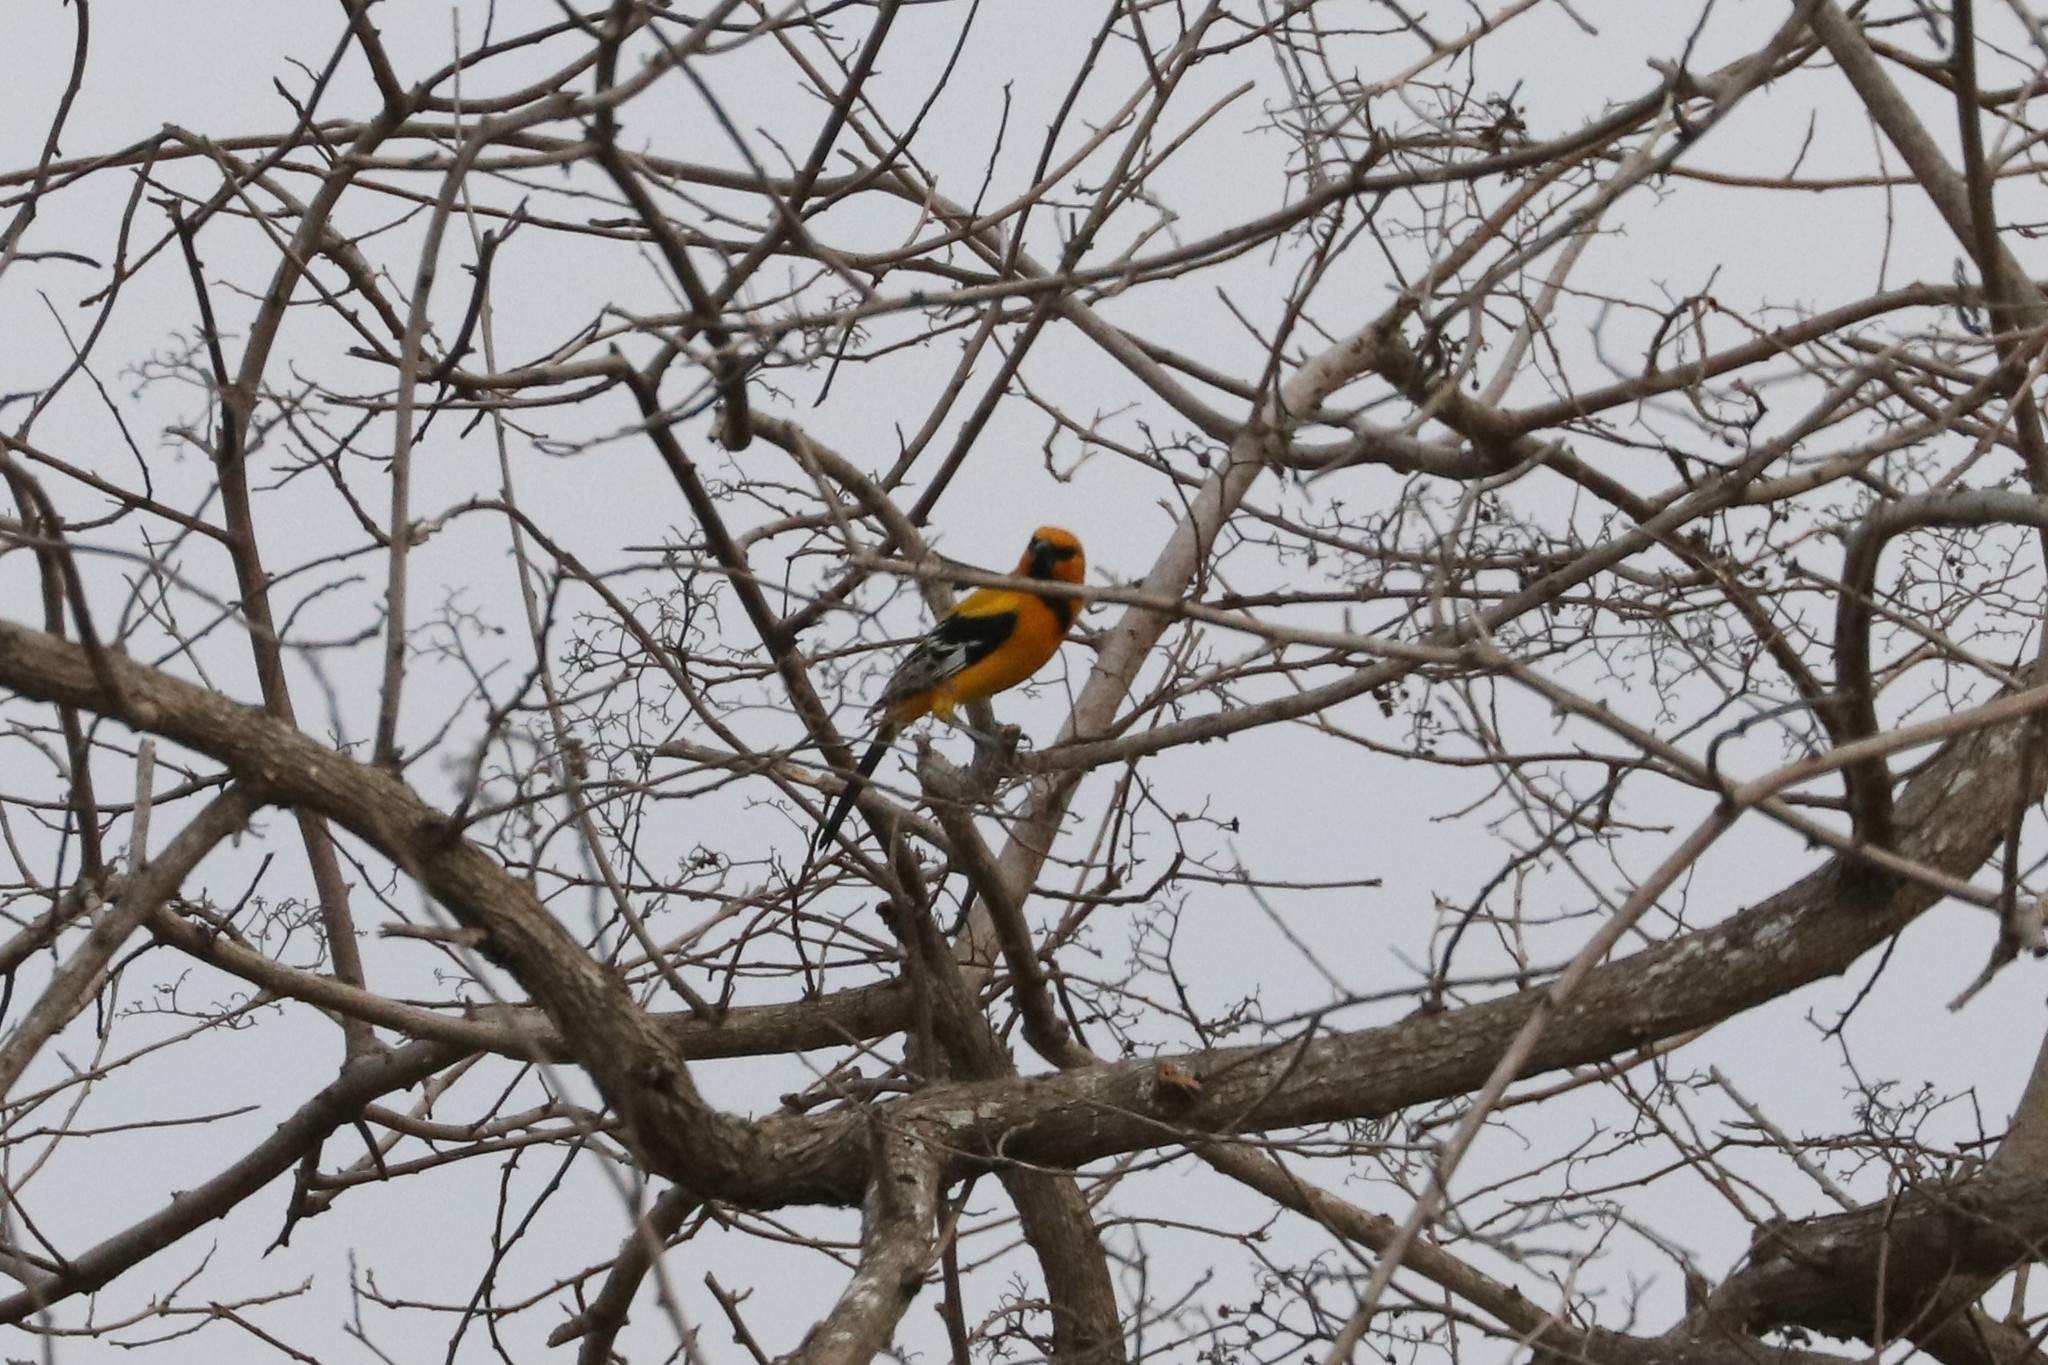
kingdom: Animalia
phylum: Chordata
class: Aves
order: Passeriformes
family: Icteridae
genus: Icterus
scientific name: Icterus nigrogularis
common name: Yellow oriole
